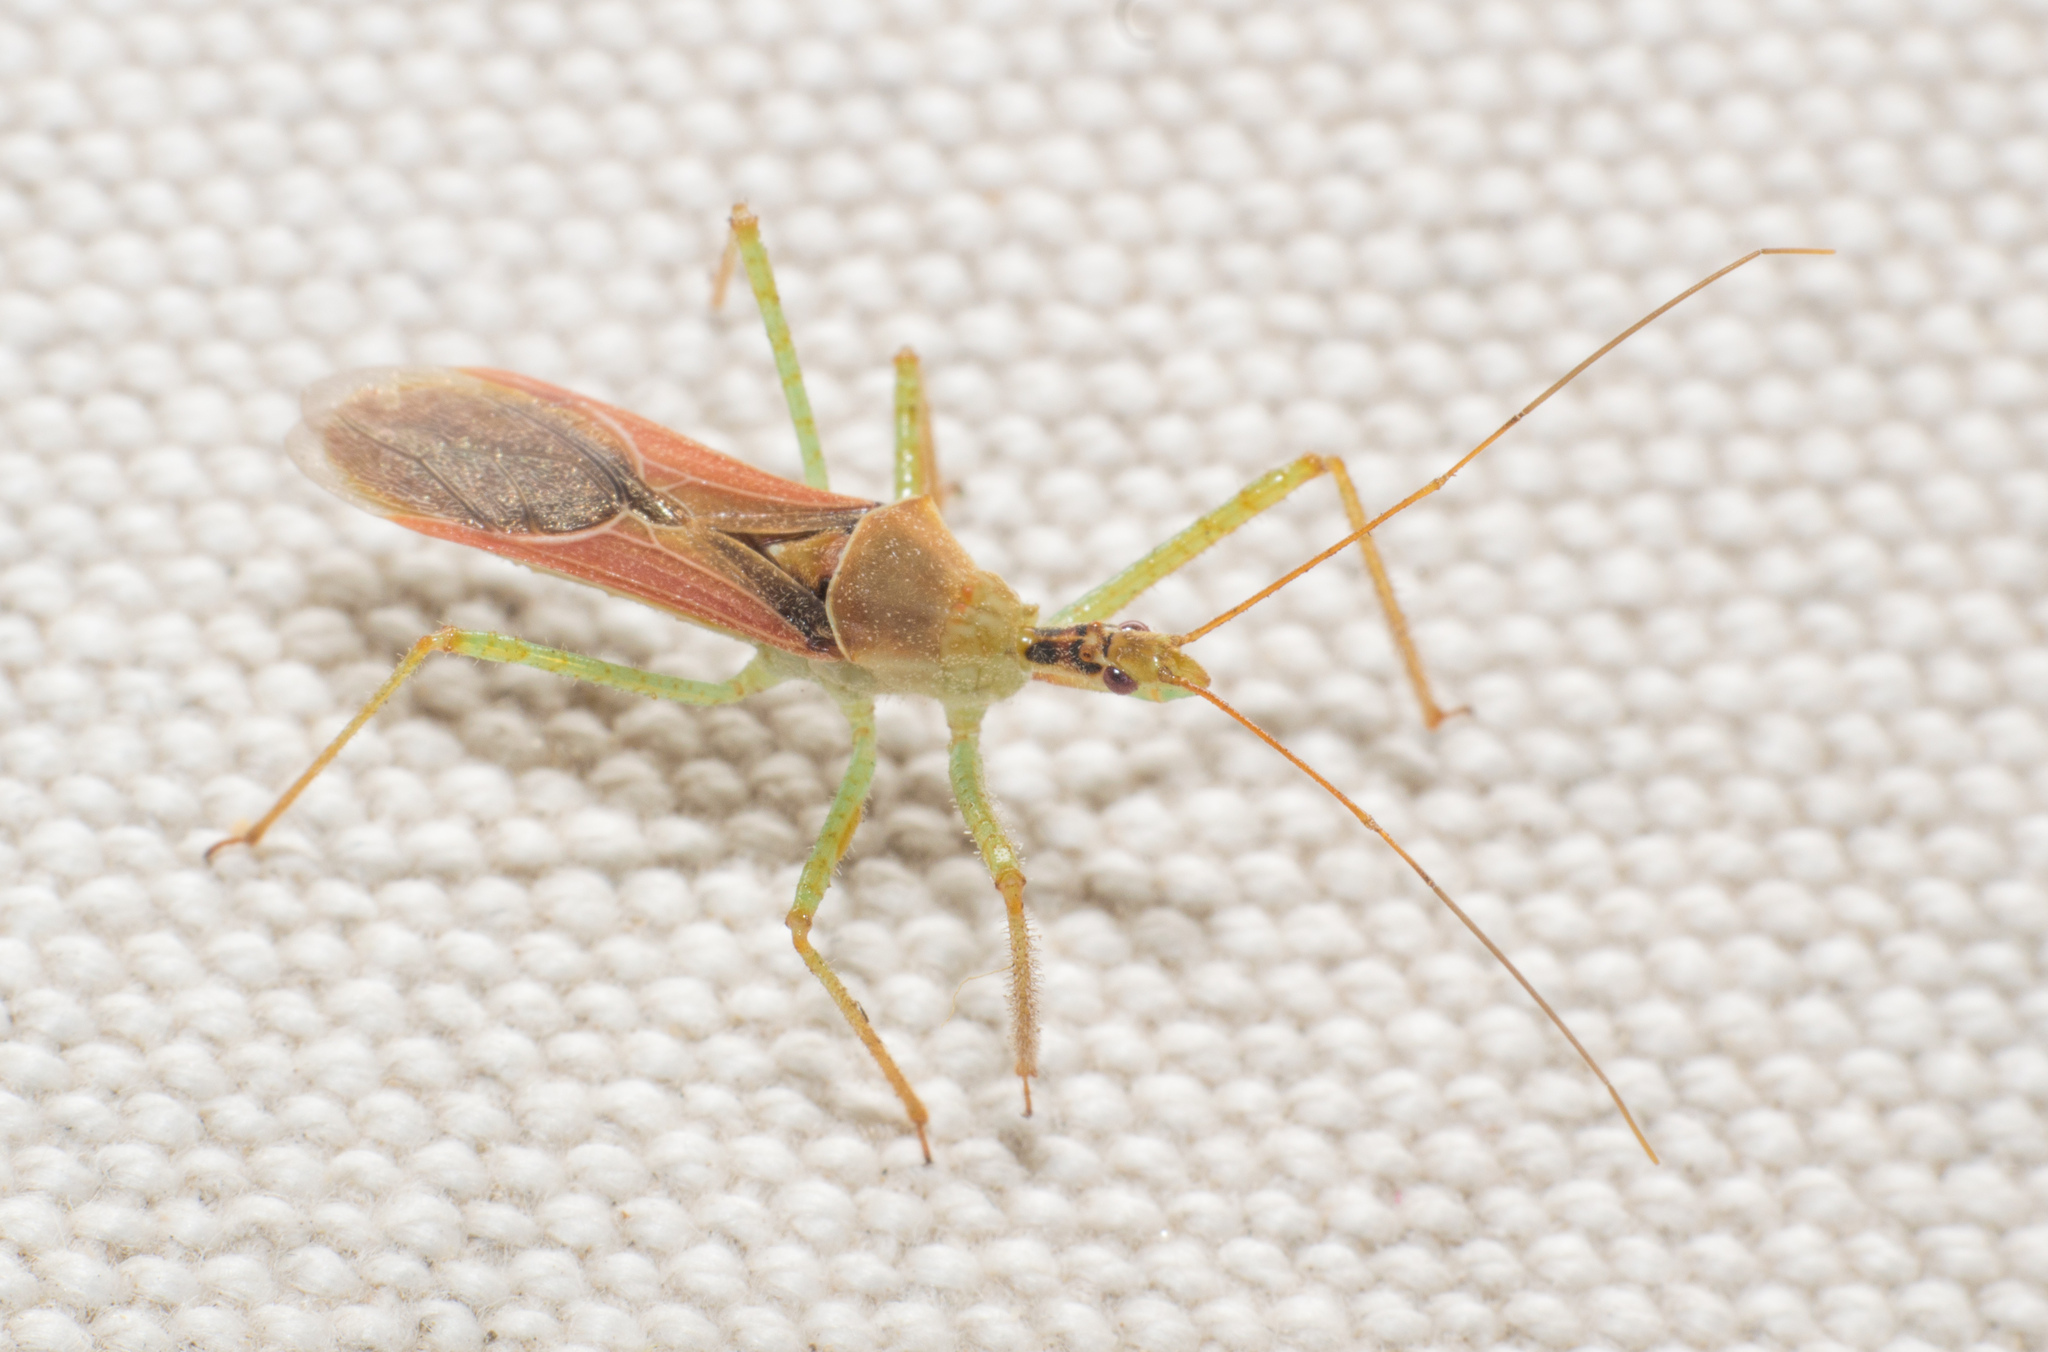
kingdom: Animalia
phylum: Arthropoda
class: Insecta
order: Hemiptera
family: Reduviidae
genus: Zelus
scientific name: Zelus renardii
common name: Assassin bug
